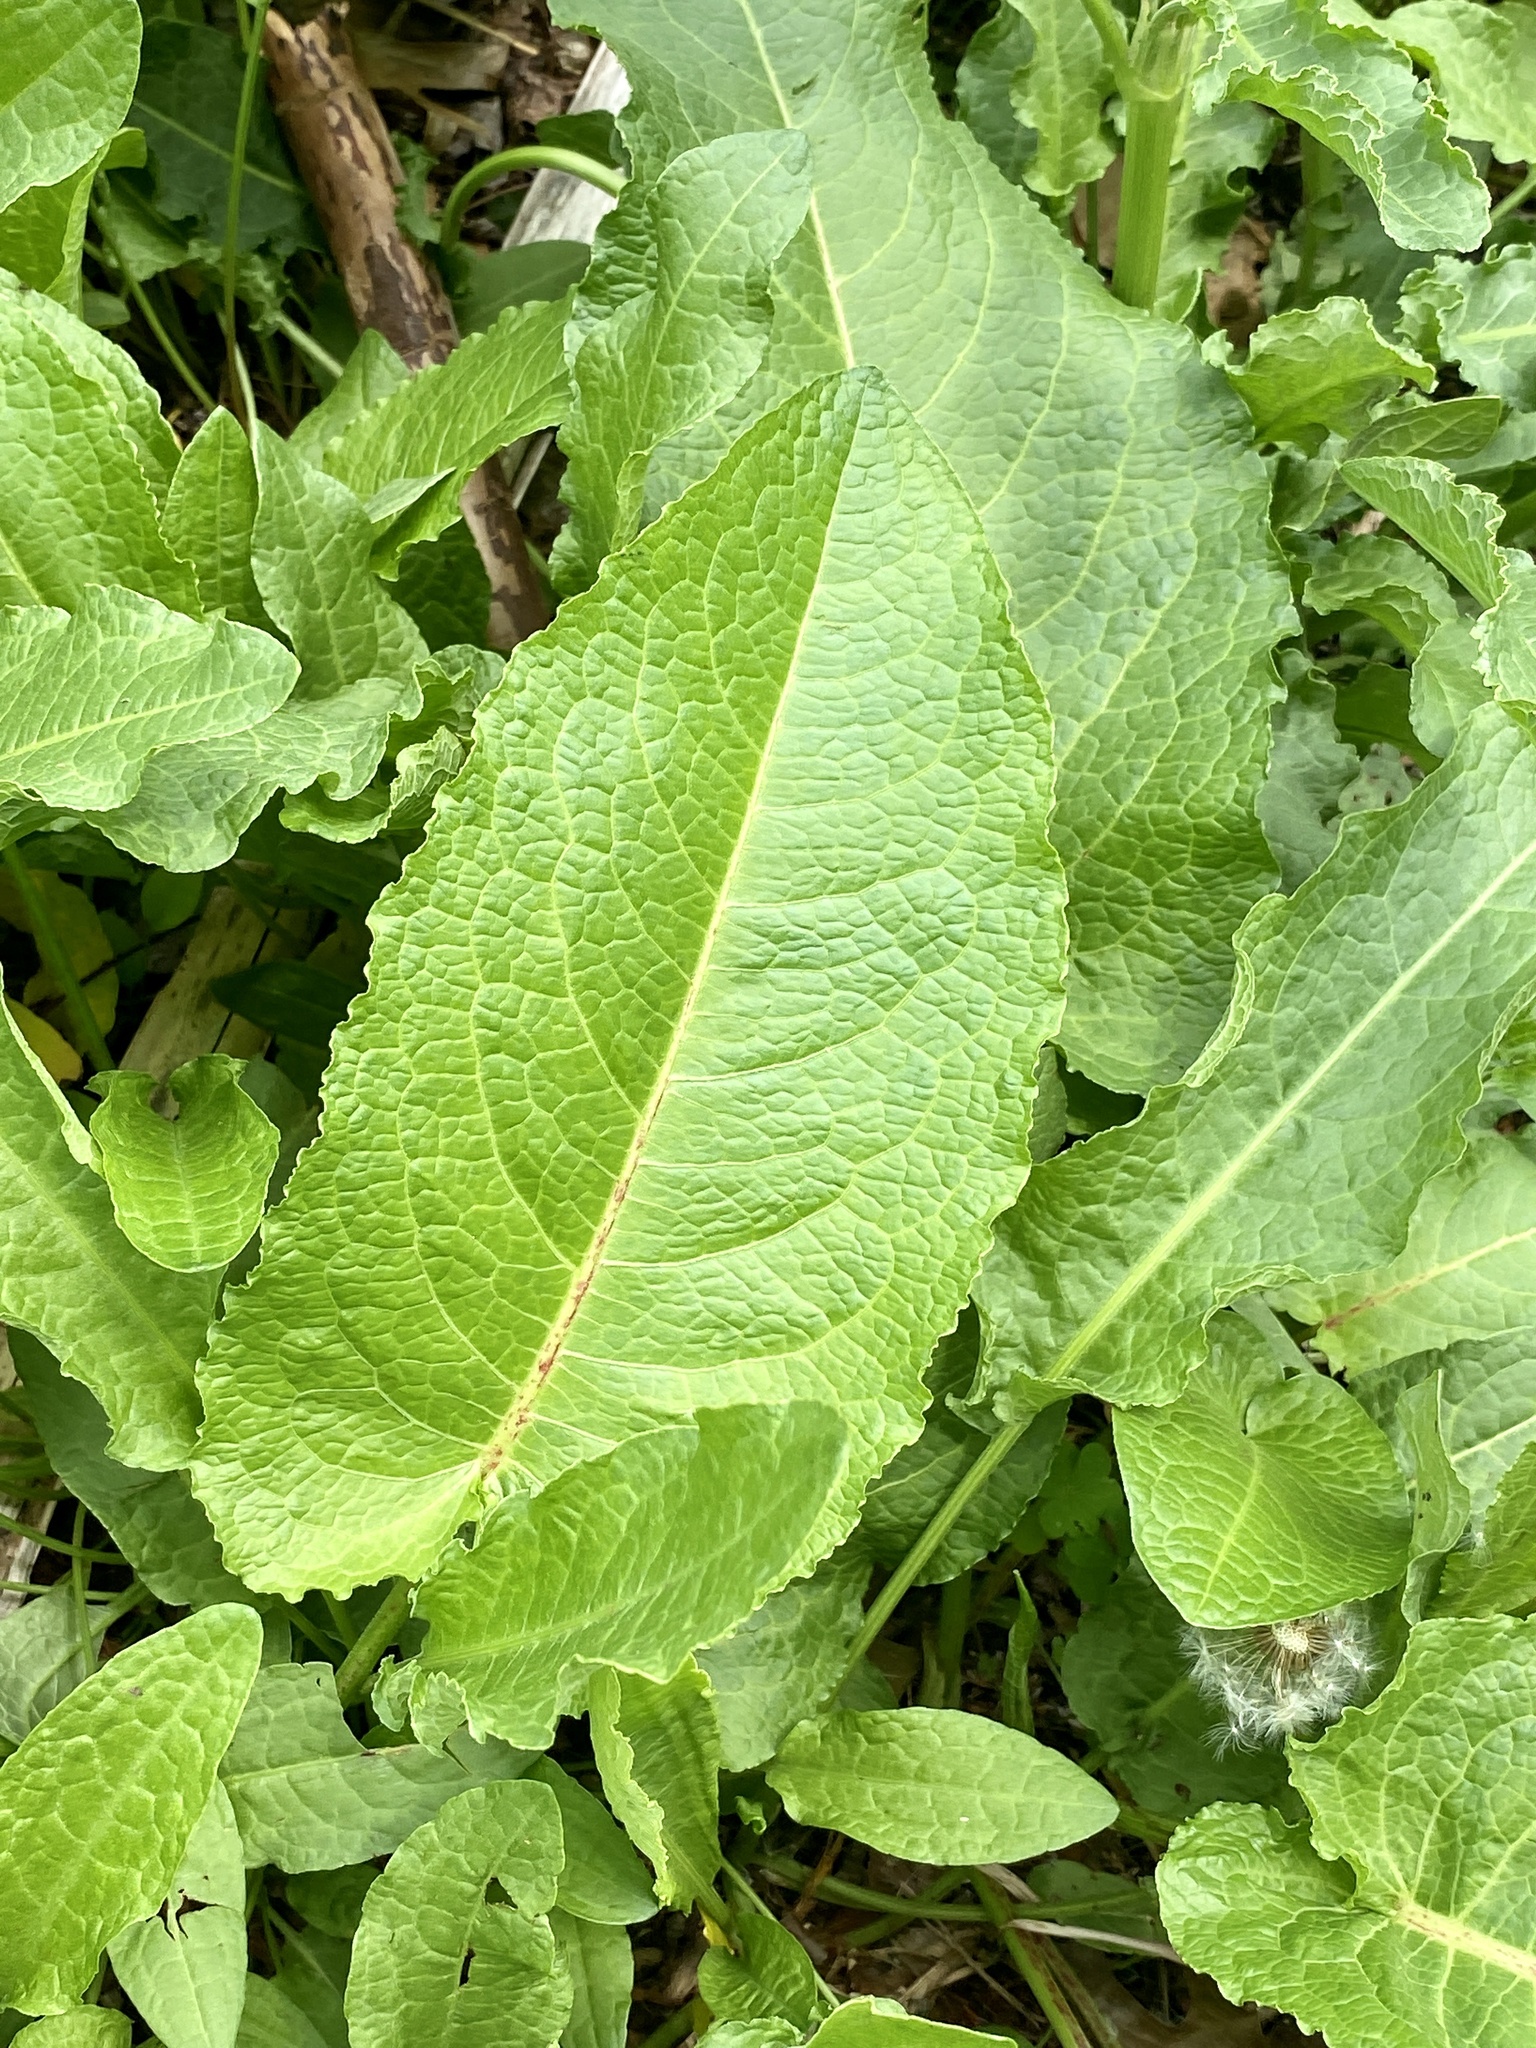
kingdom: Plantae
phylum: Tracheophyta
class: Magnoliopsida
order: Caryophyllales
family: Polygonaceae
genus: Rumex
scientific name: Rumex obtusifolius
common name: Bitter dock
